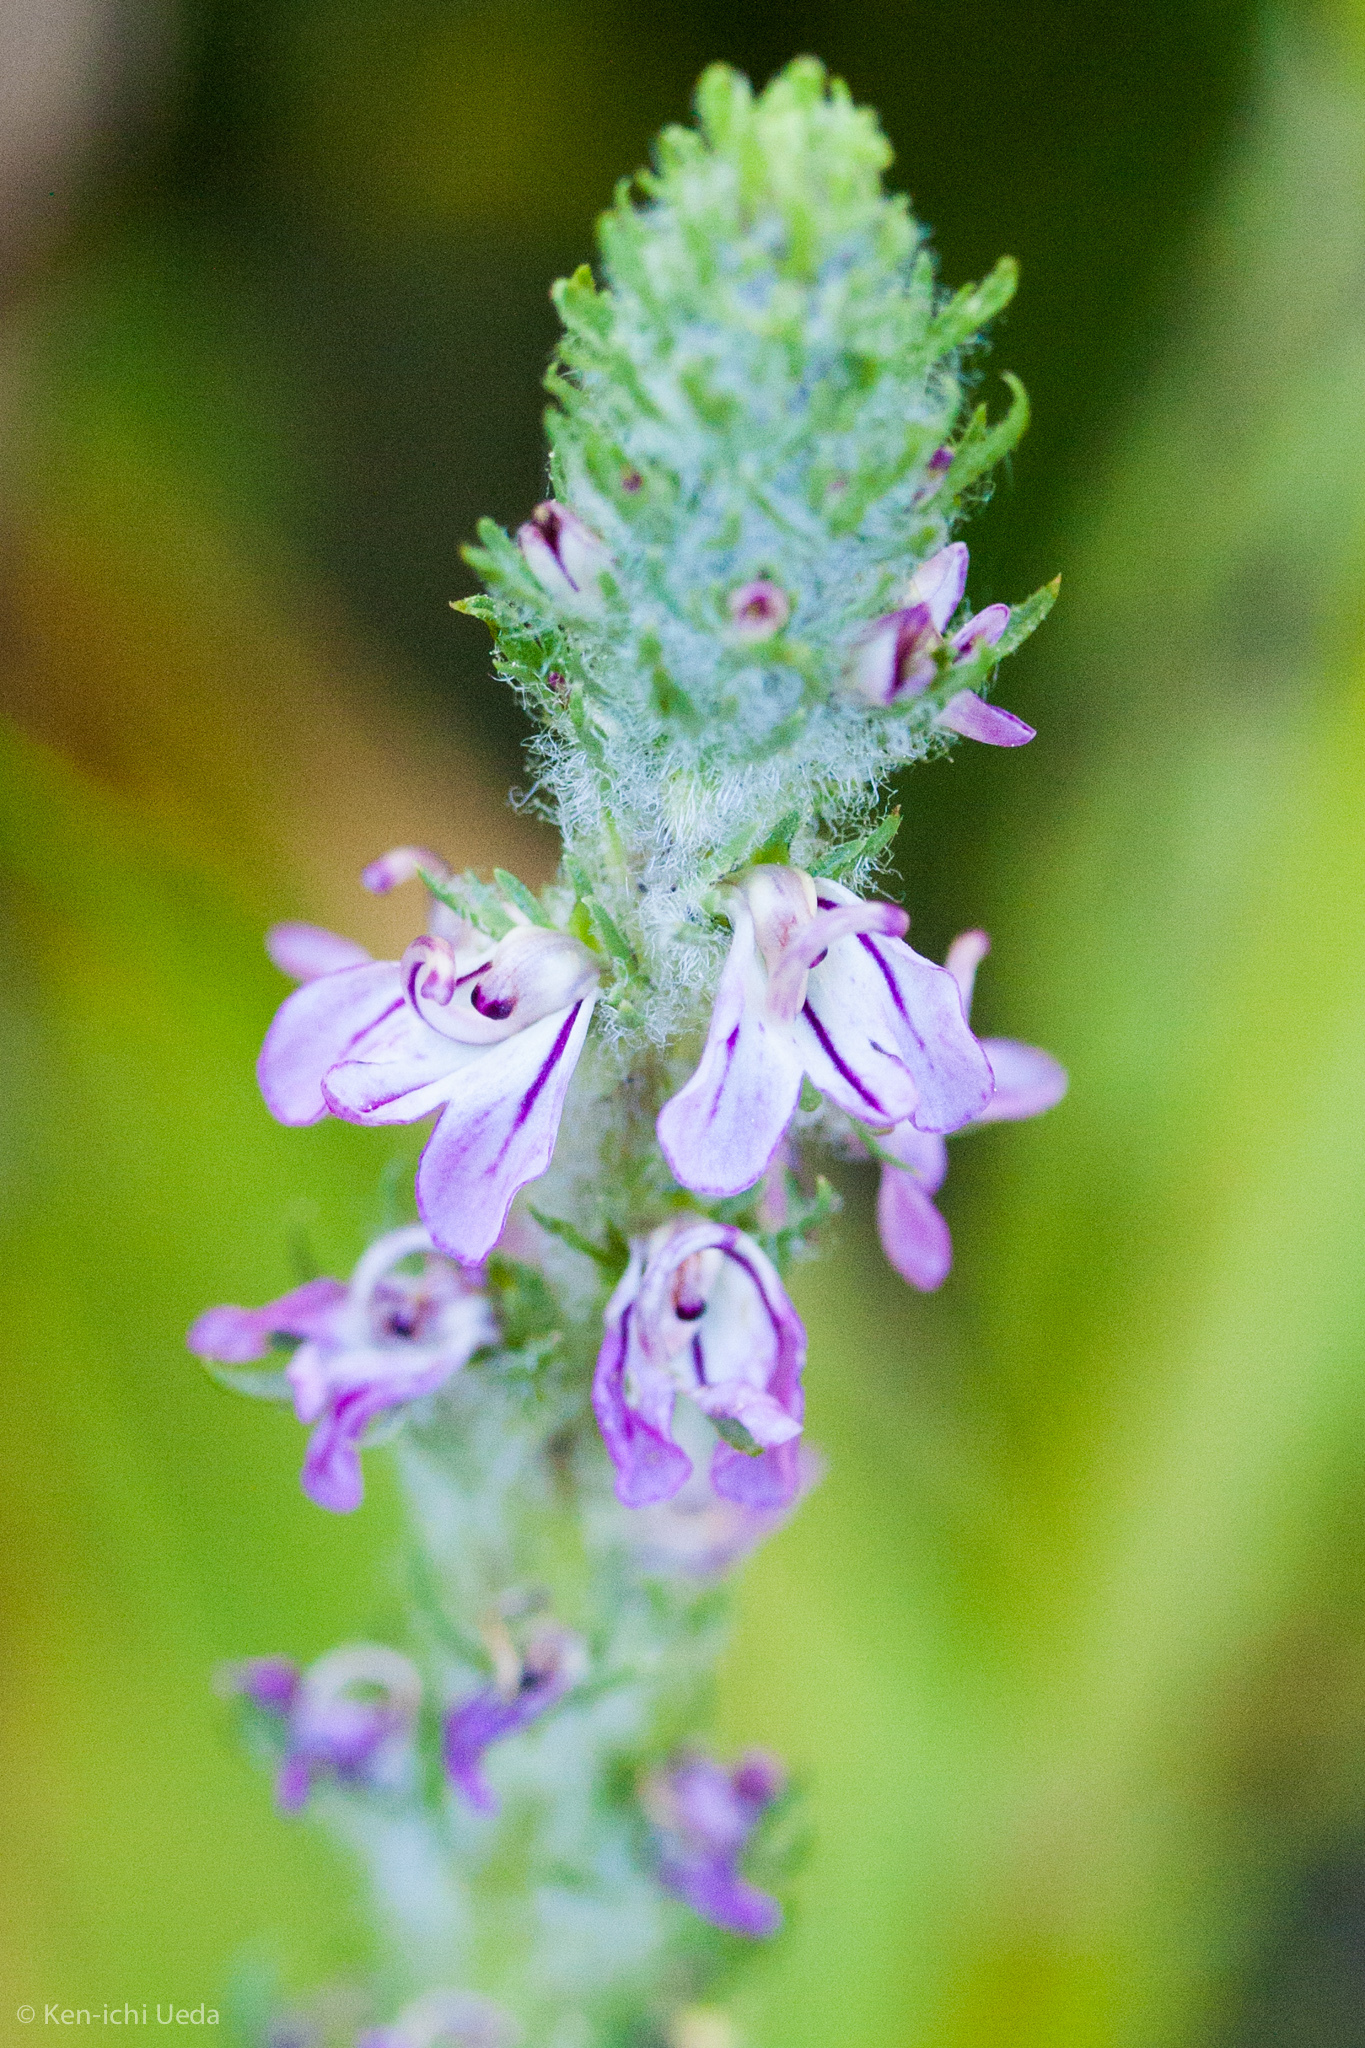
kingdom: Plantae
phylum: Tracheophyta
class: Magnoliopsida
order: Lamiales
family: Orobanchaceae
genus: Pedicularis
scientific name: Pedicularis attollens
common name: Slender pedicularis
